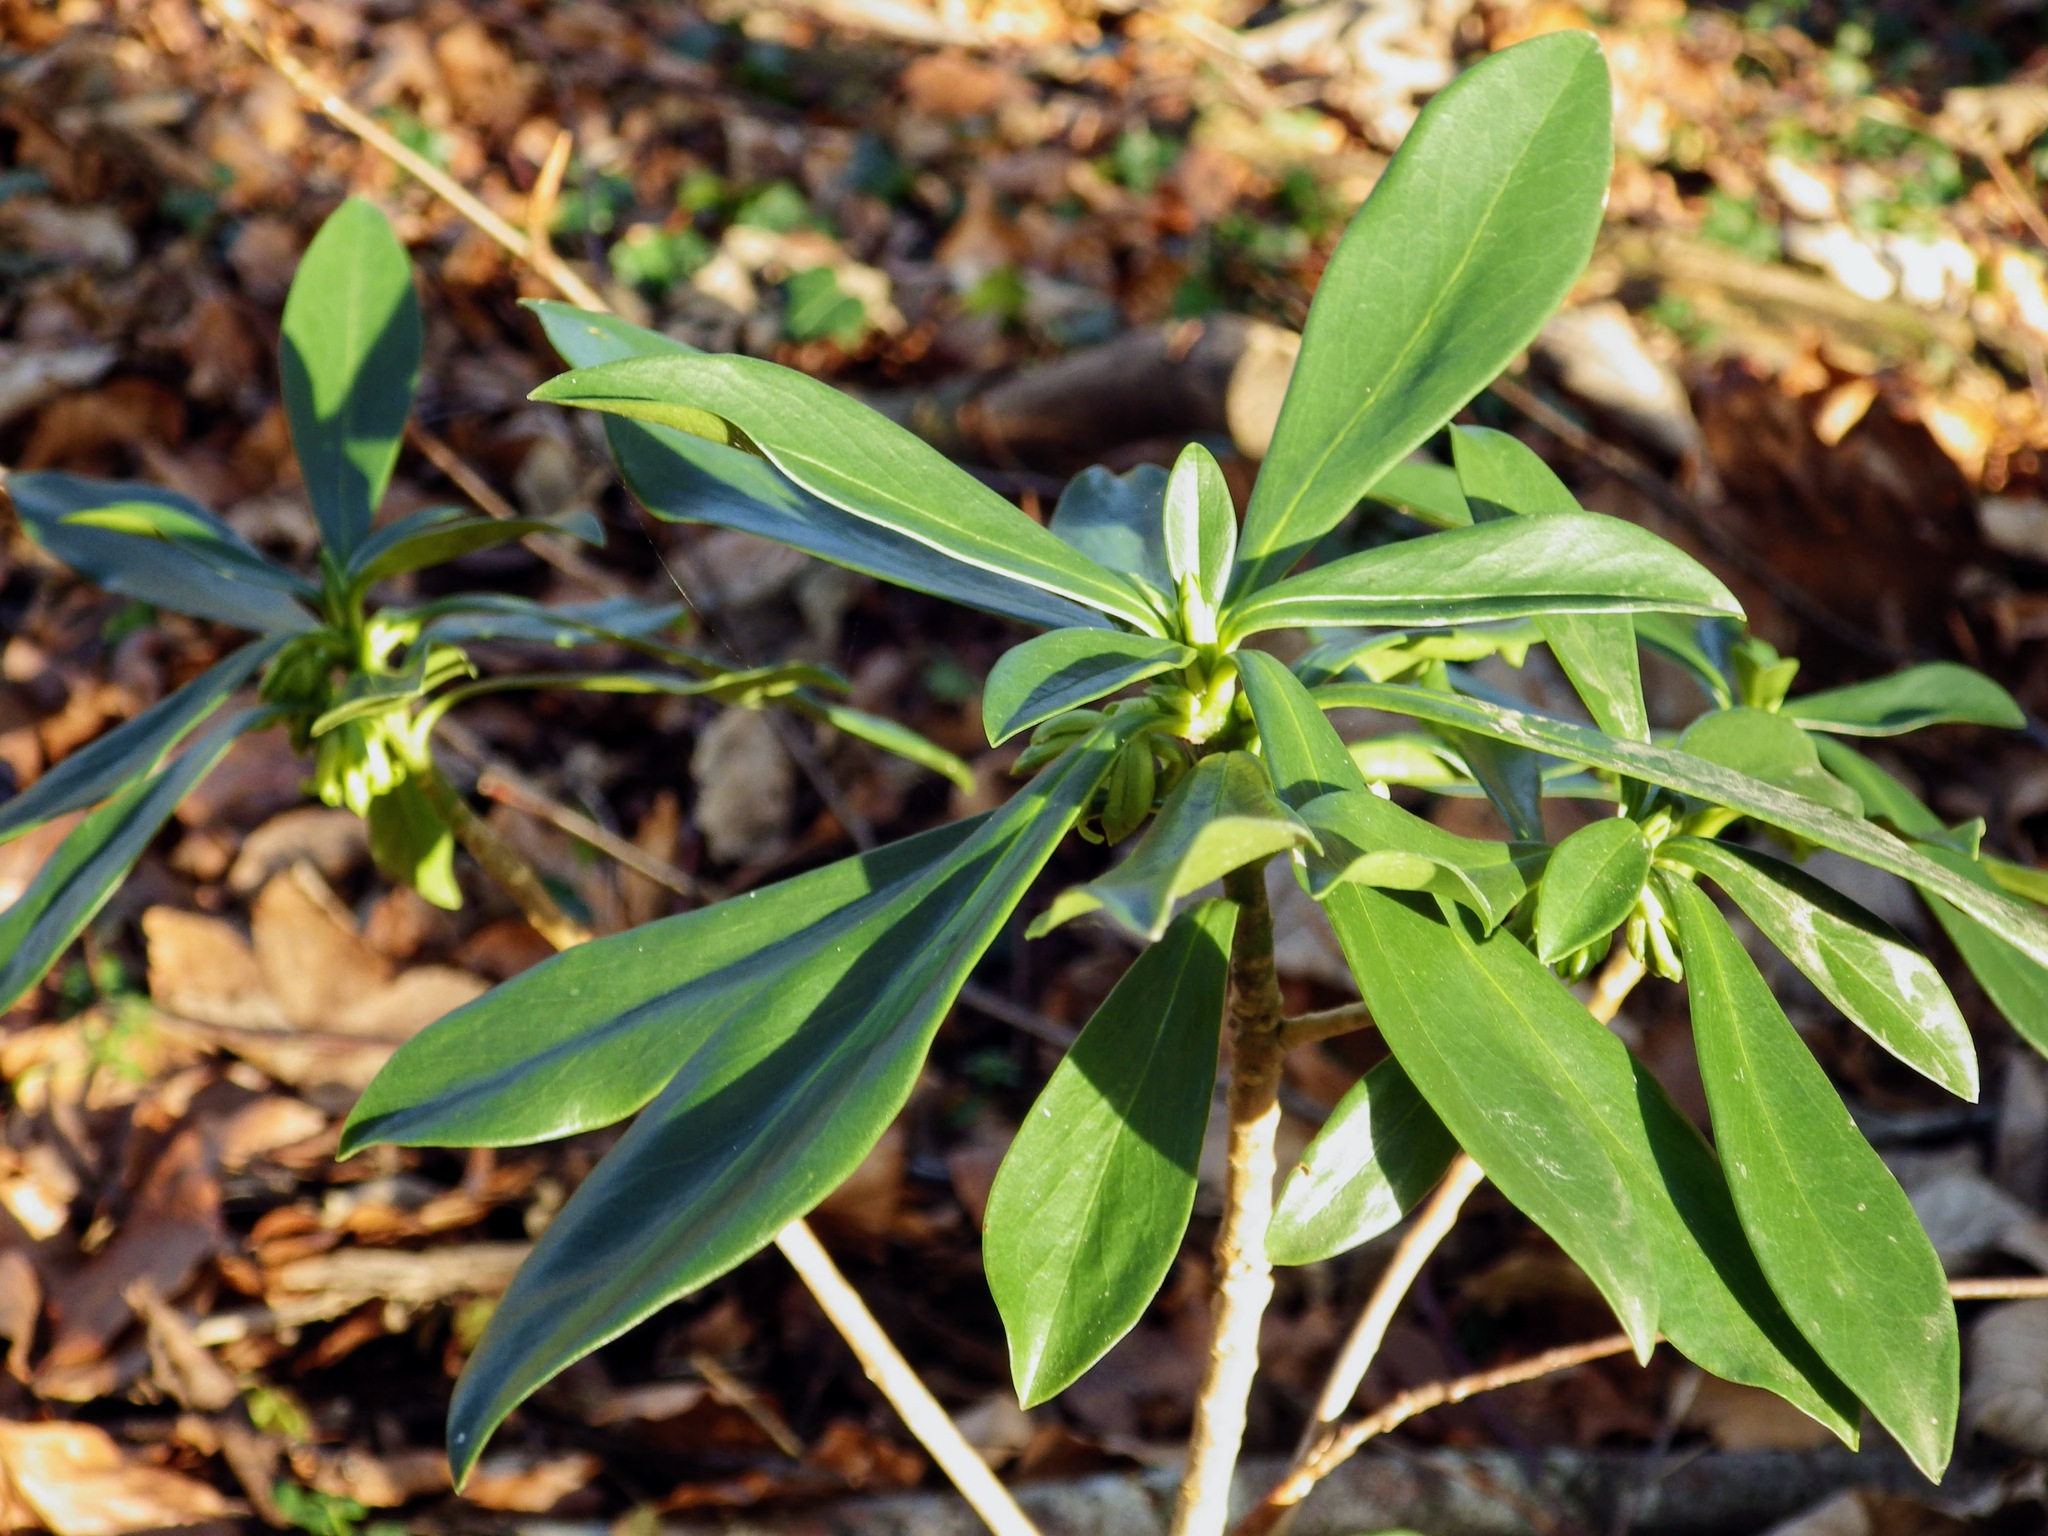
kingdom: Plantae
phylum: Tracheophyta
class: Magnoliopsida
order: Malvales
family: Thymelaeaceae
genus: Daphne
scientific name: Daphne laureola
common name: Spurge-laurel
